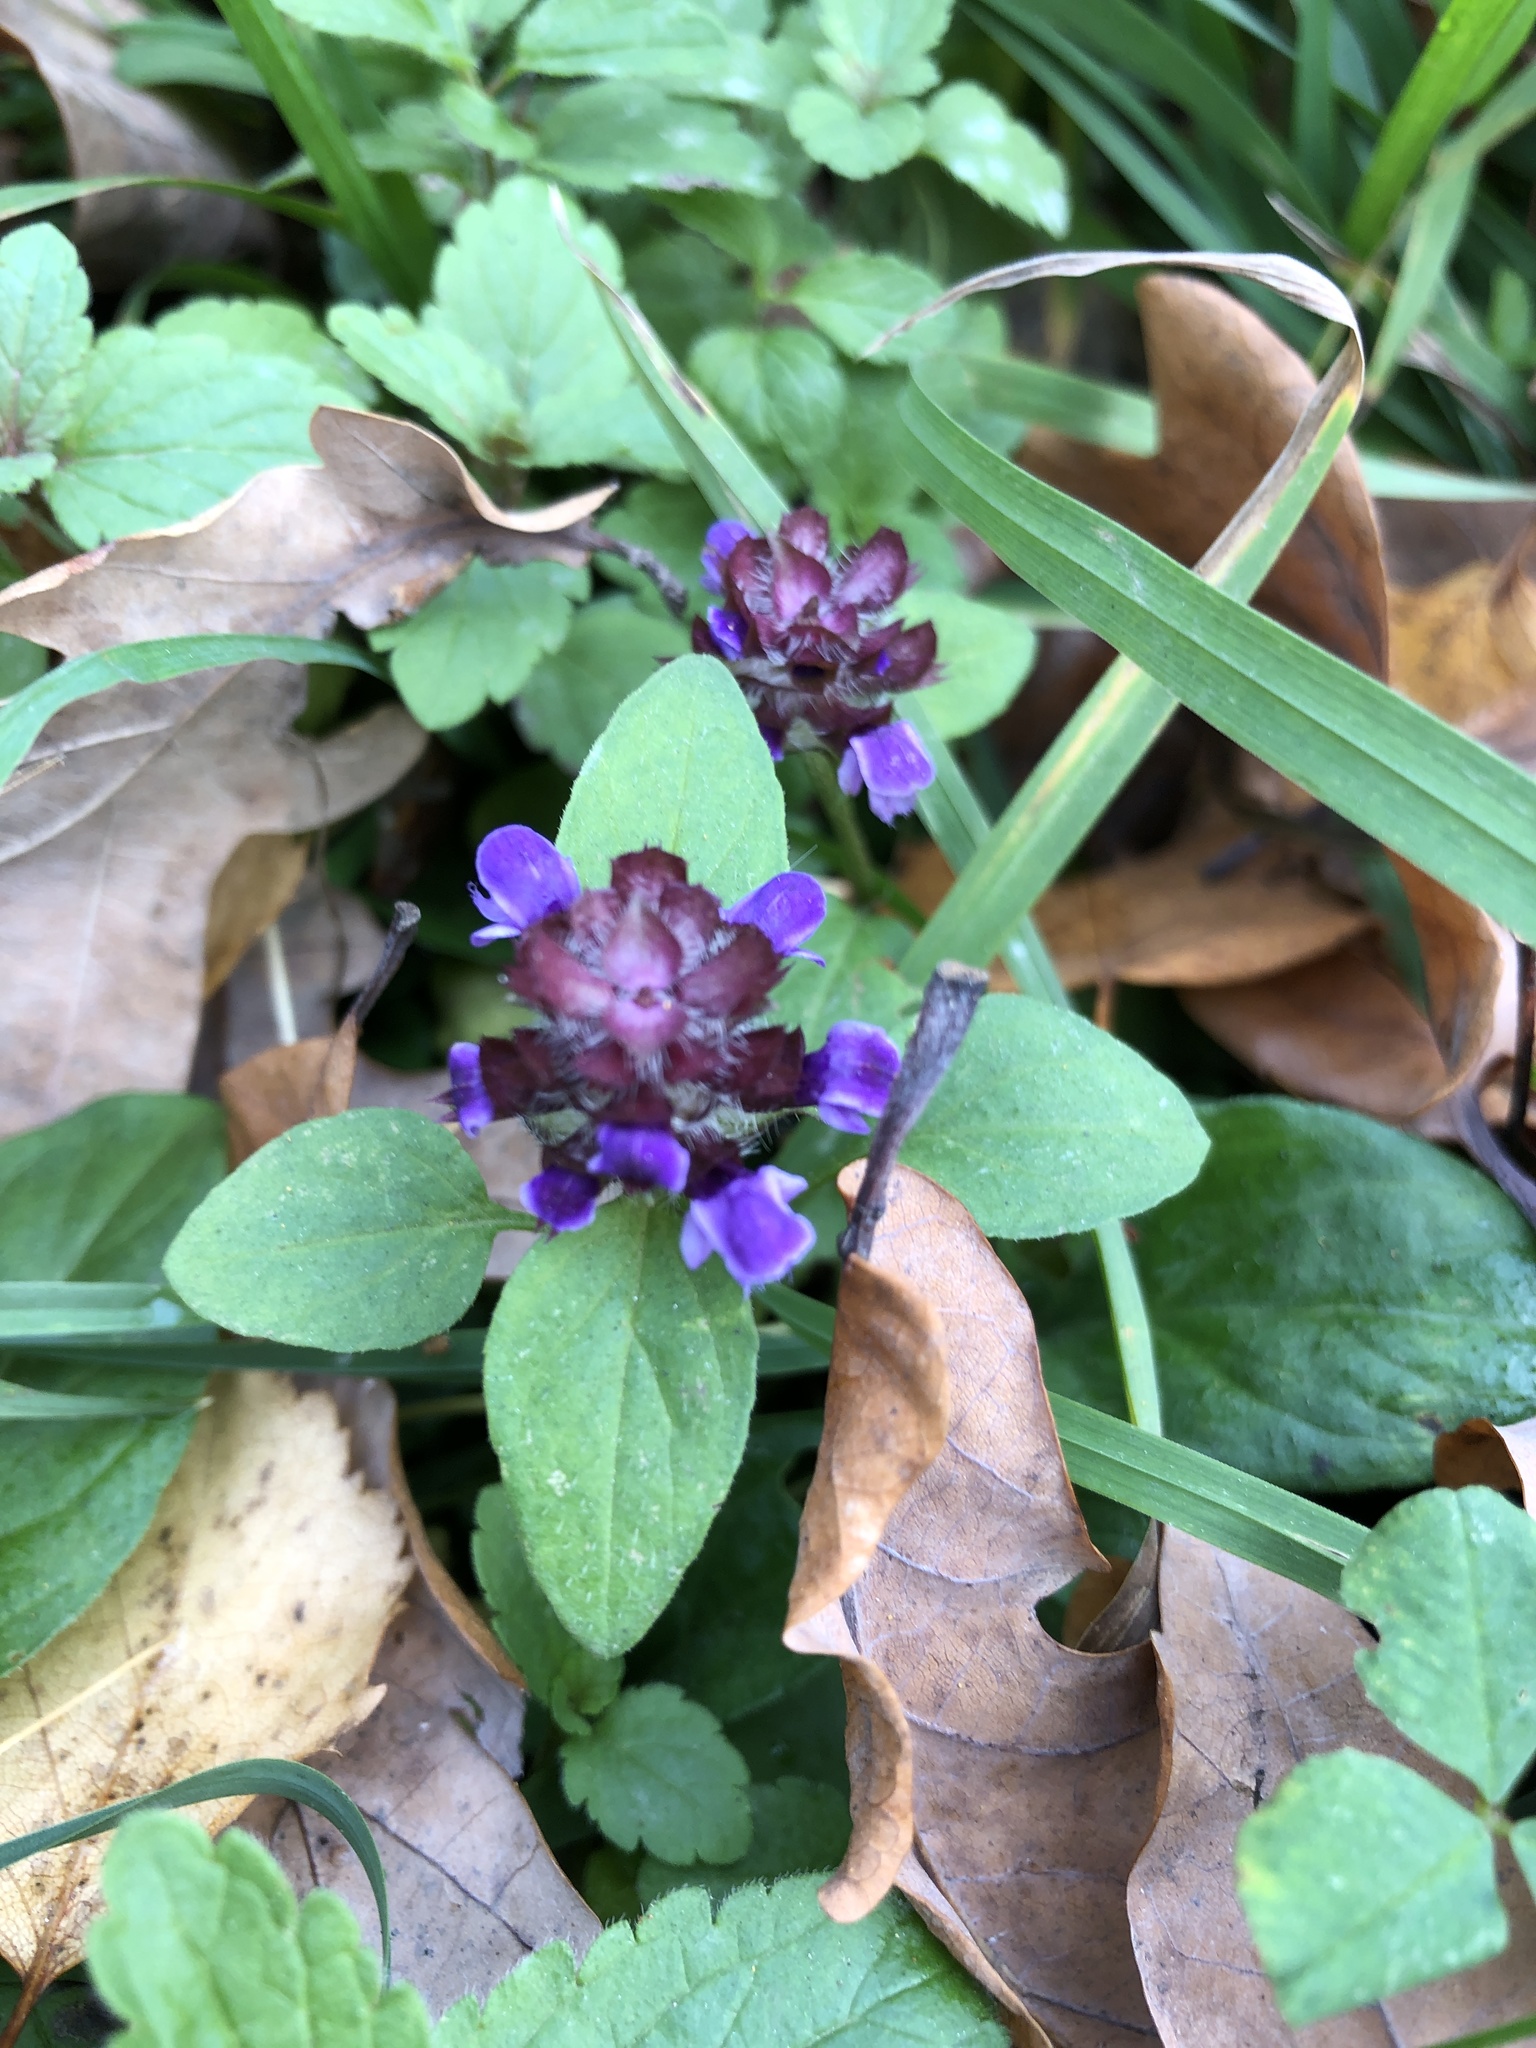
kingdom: Plantae
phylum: Tracheophyta
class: Magnoliopsida
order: Lamiales
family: Lamiaceae
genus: Prunella
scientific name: Prunella vulgaris
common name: Heal-all
